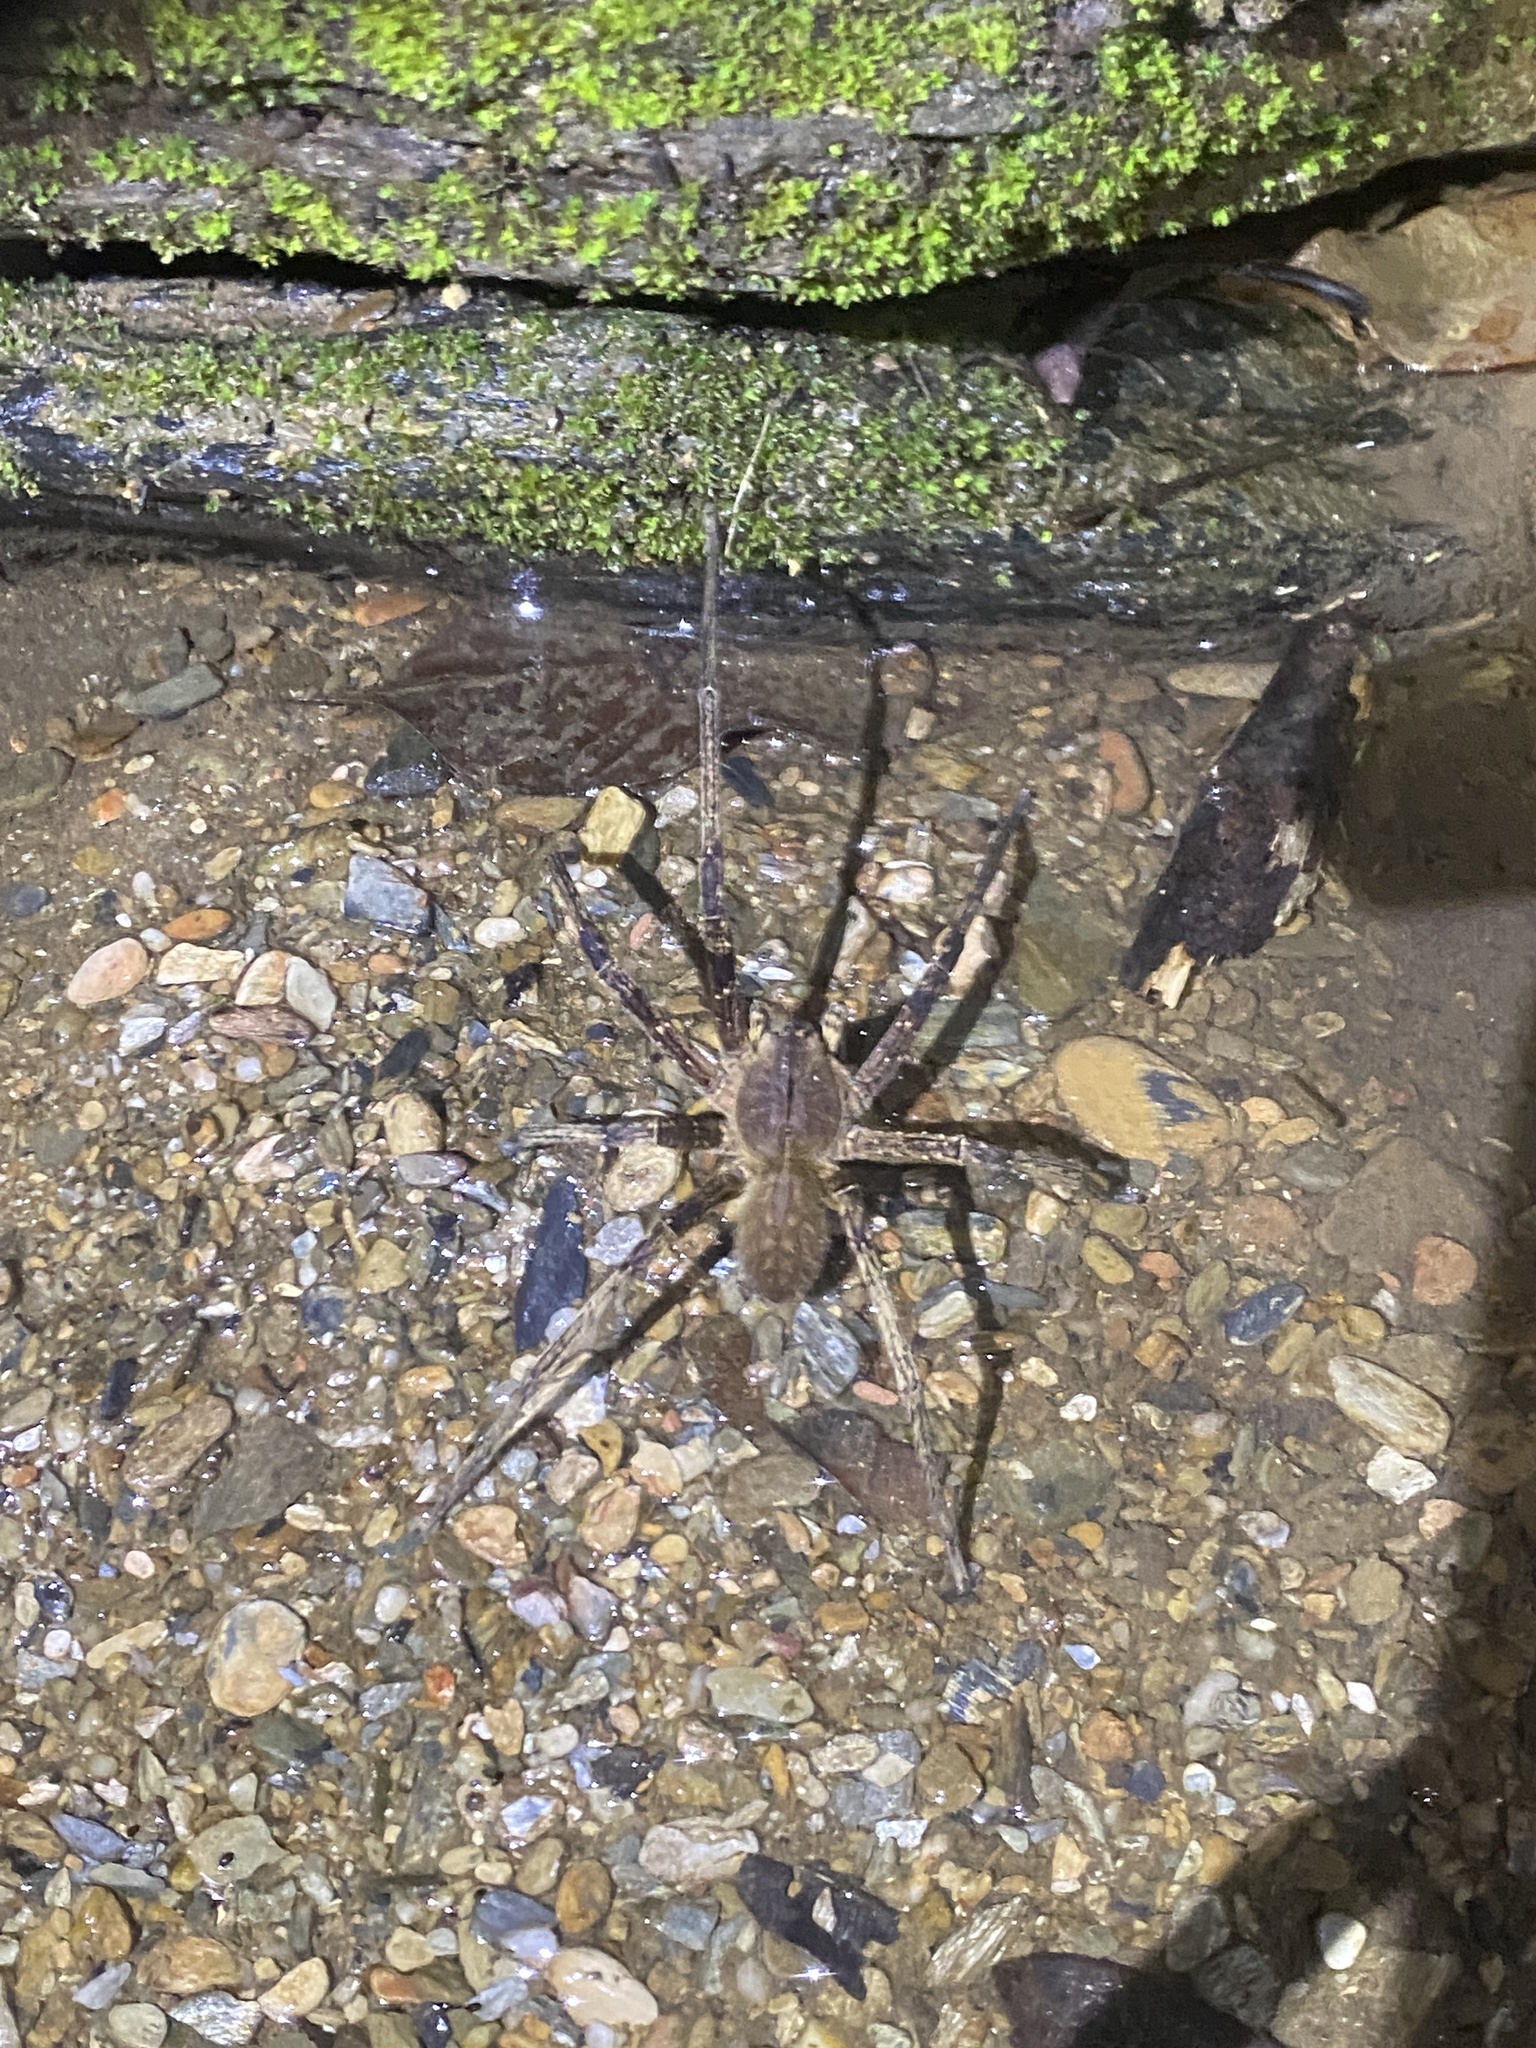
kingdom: Animalia
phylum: Arthropoda
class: Arachnida
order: Araneae
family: Ctenidae
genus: Phoneutria
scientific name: Phoneutria
